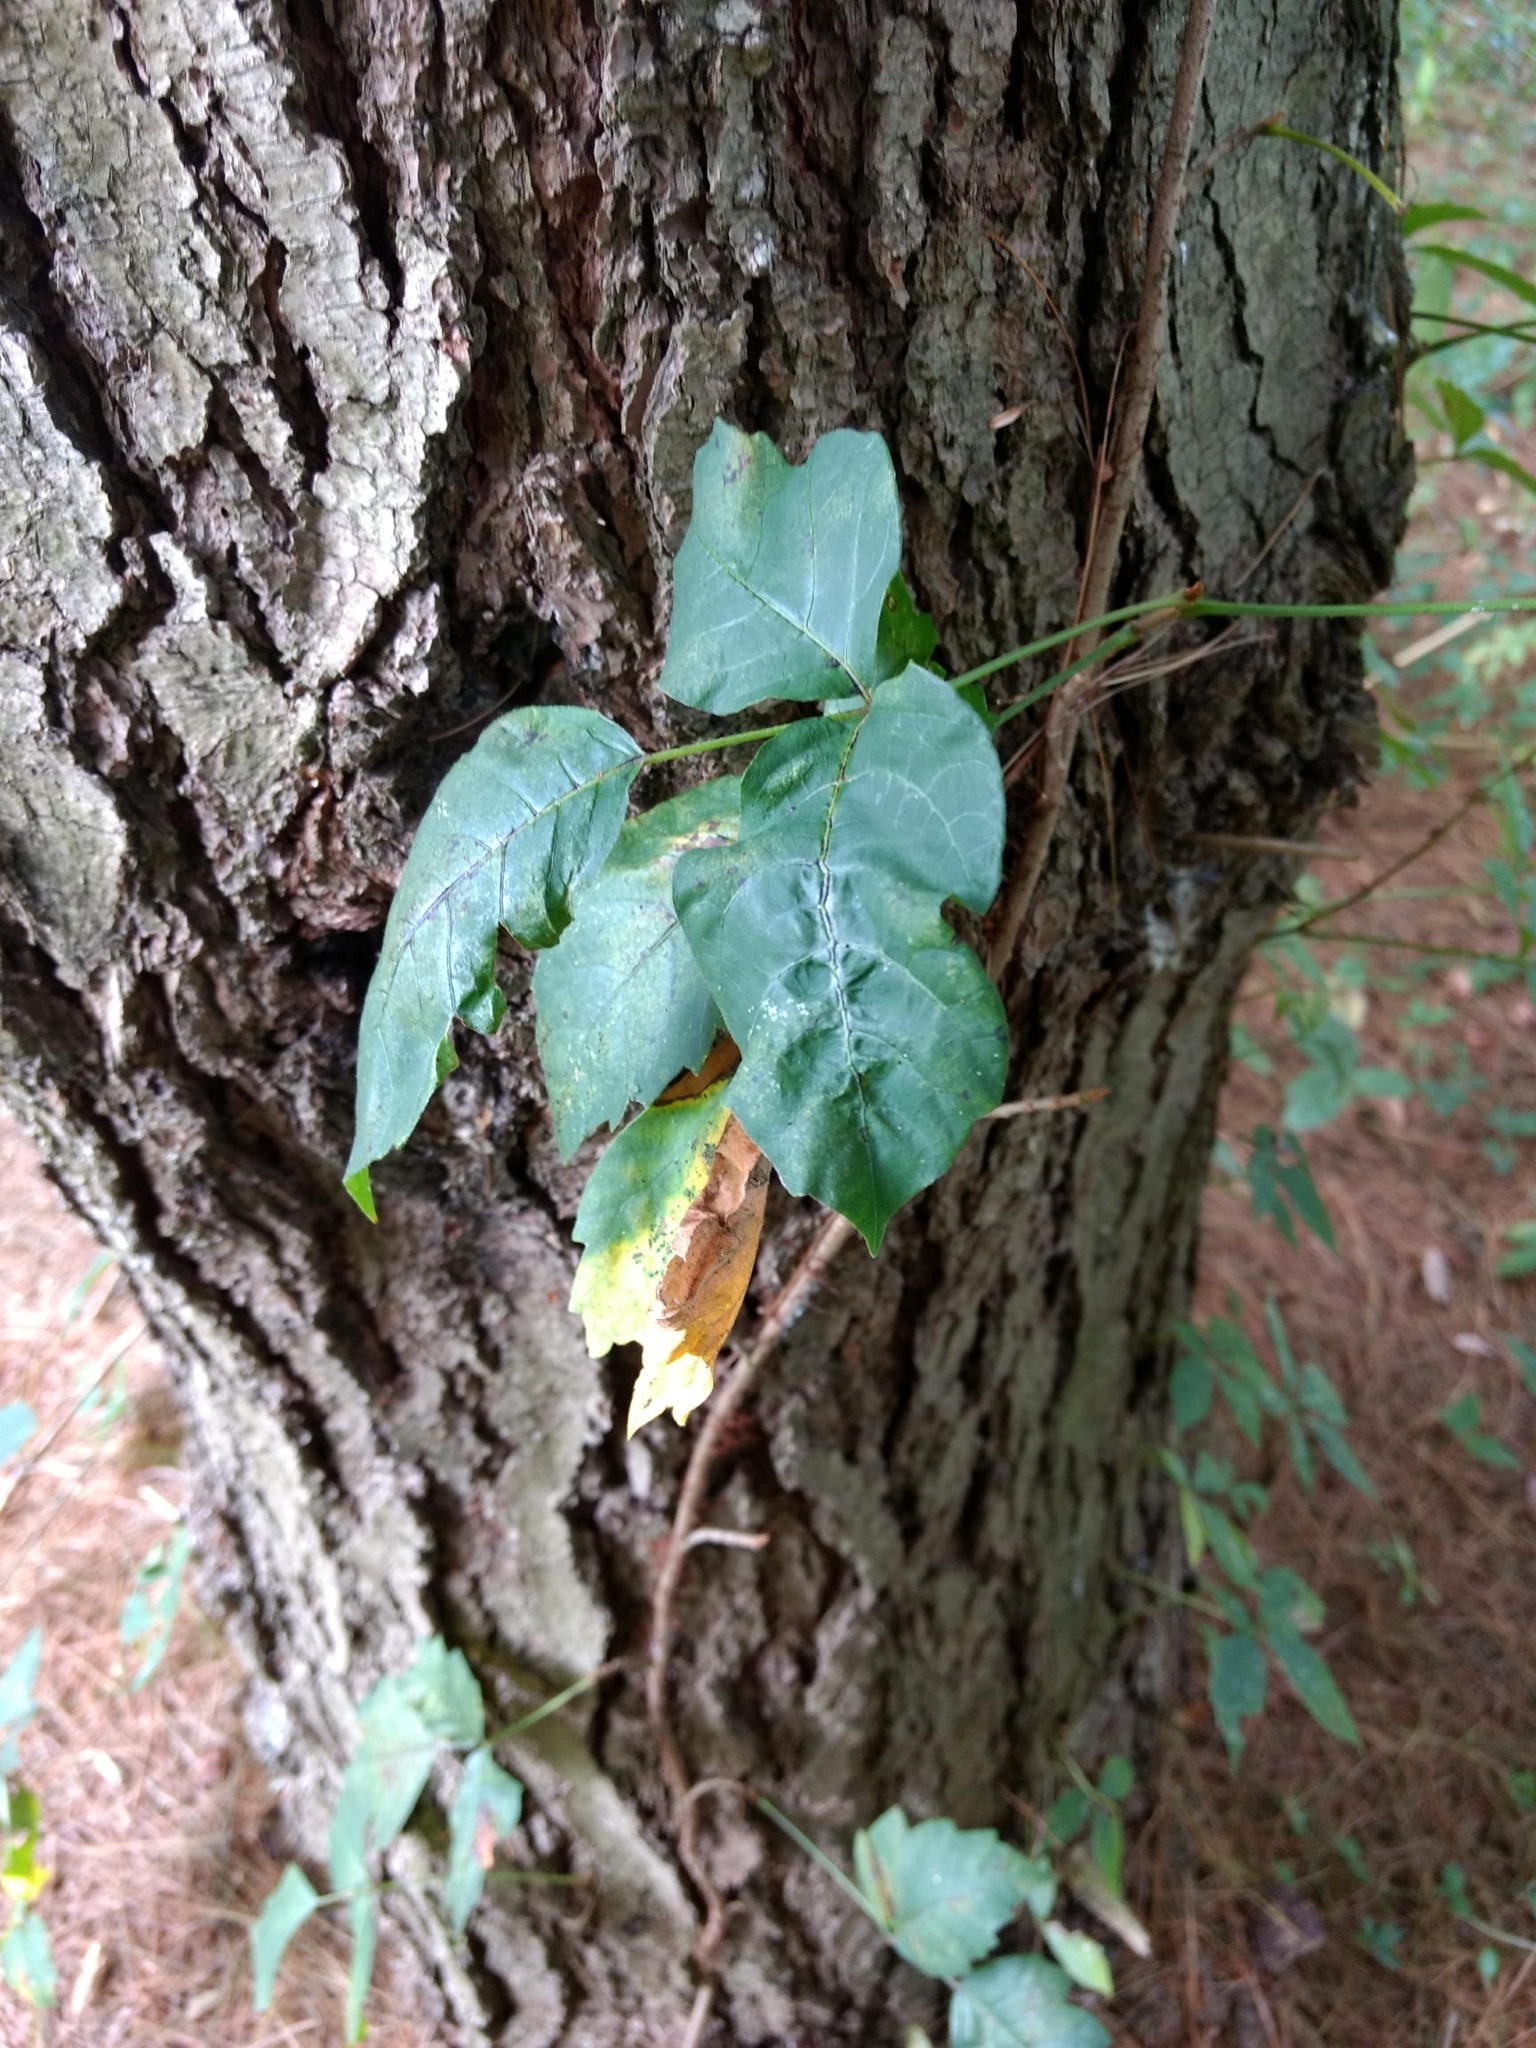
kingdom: Plantae
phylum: Tracheophyta
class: Magnoliopsida
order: Sapindales
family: Anacardiaceae
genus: Toxicodendron
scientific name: Toxicodendron radicans
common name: Poison ivy
